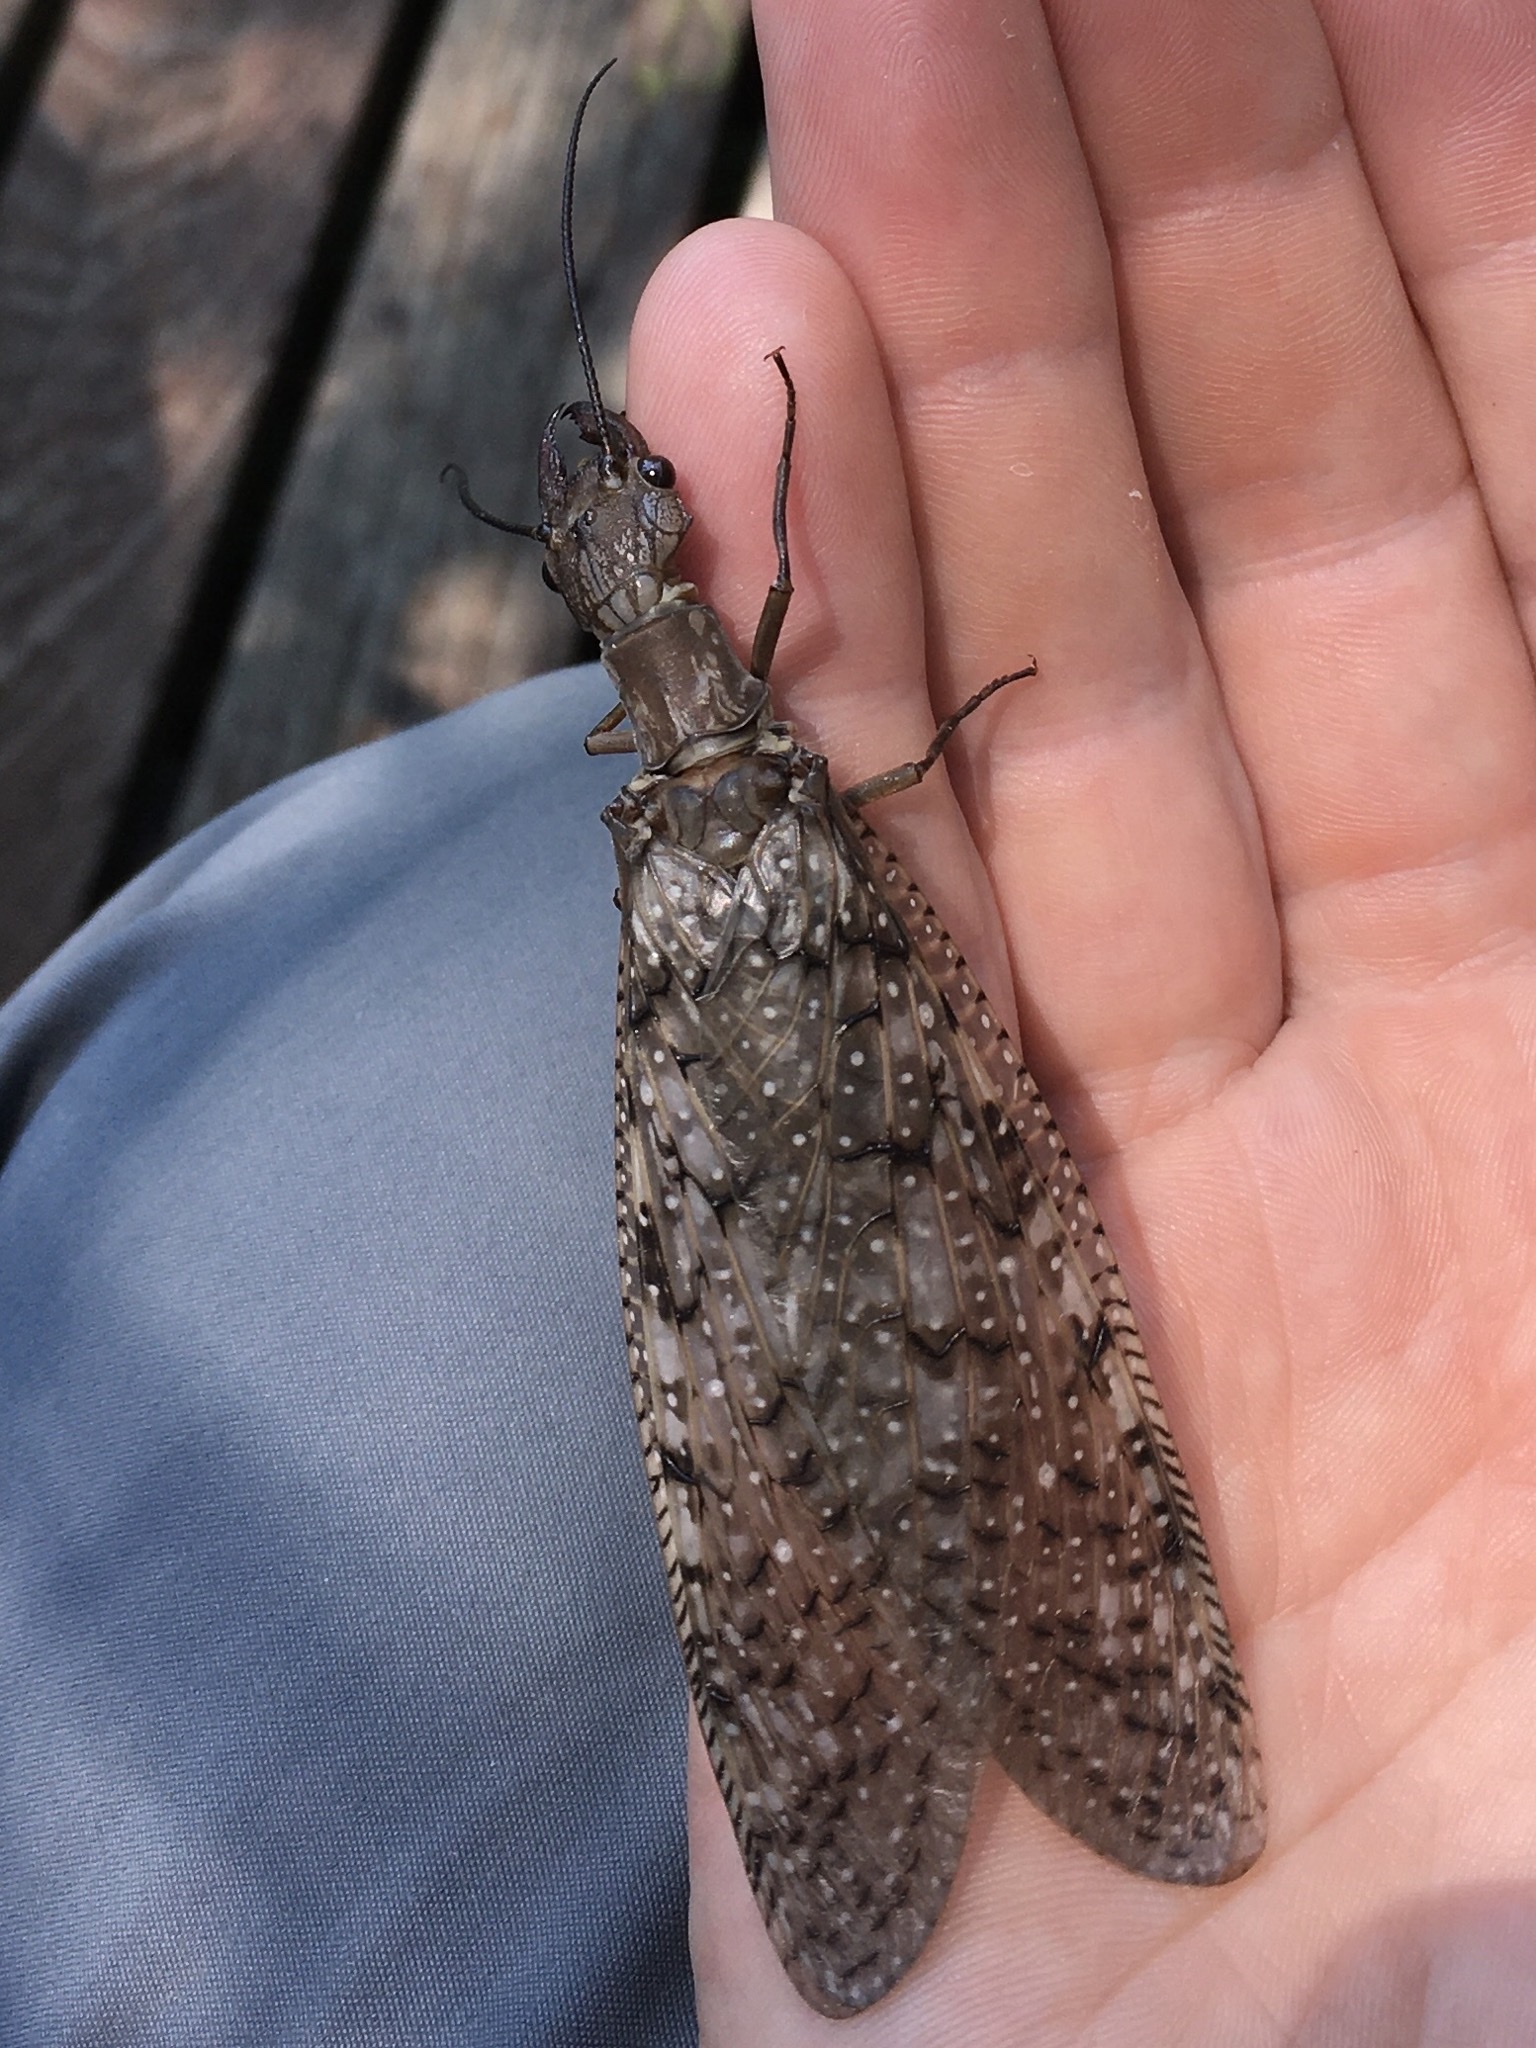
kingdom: Animalia
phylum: Arthropoda
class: Insecta
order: Megaloptera
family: Corydalidae
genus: Corydalus
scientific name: Corydalus cornutus
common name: Dobsonfly
